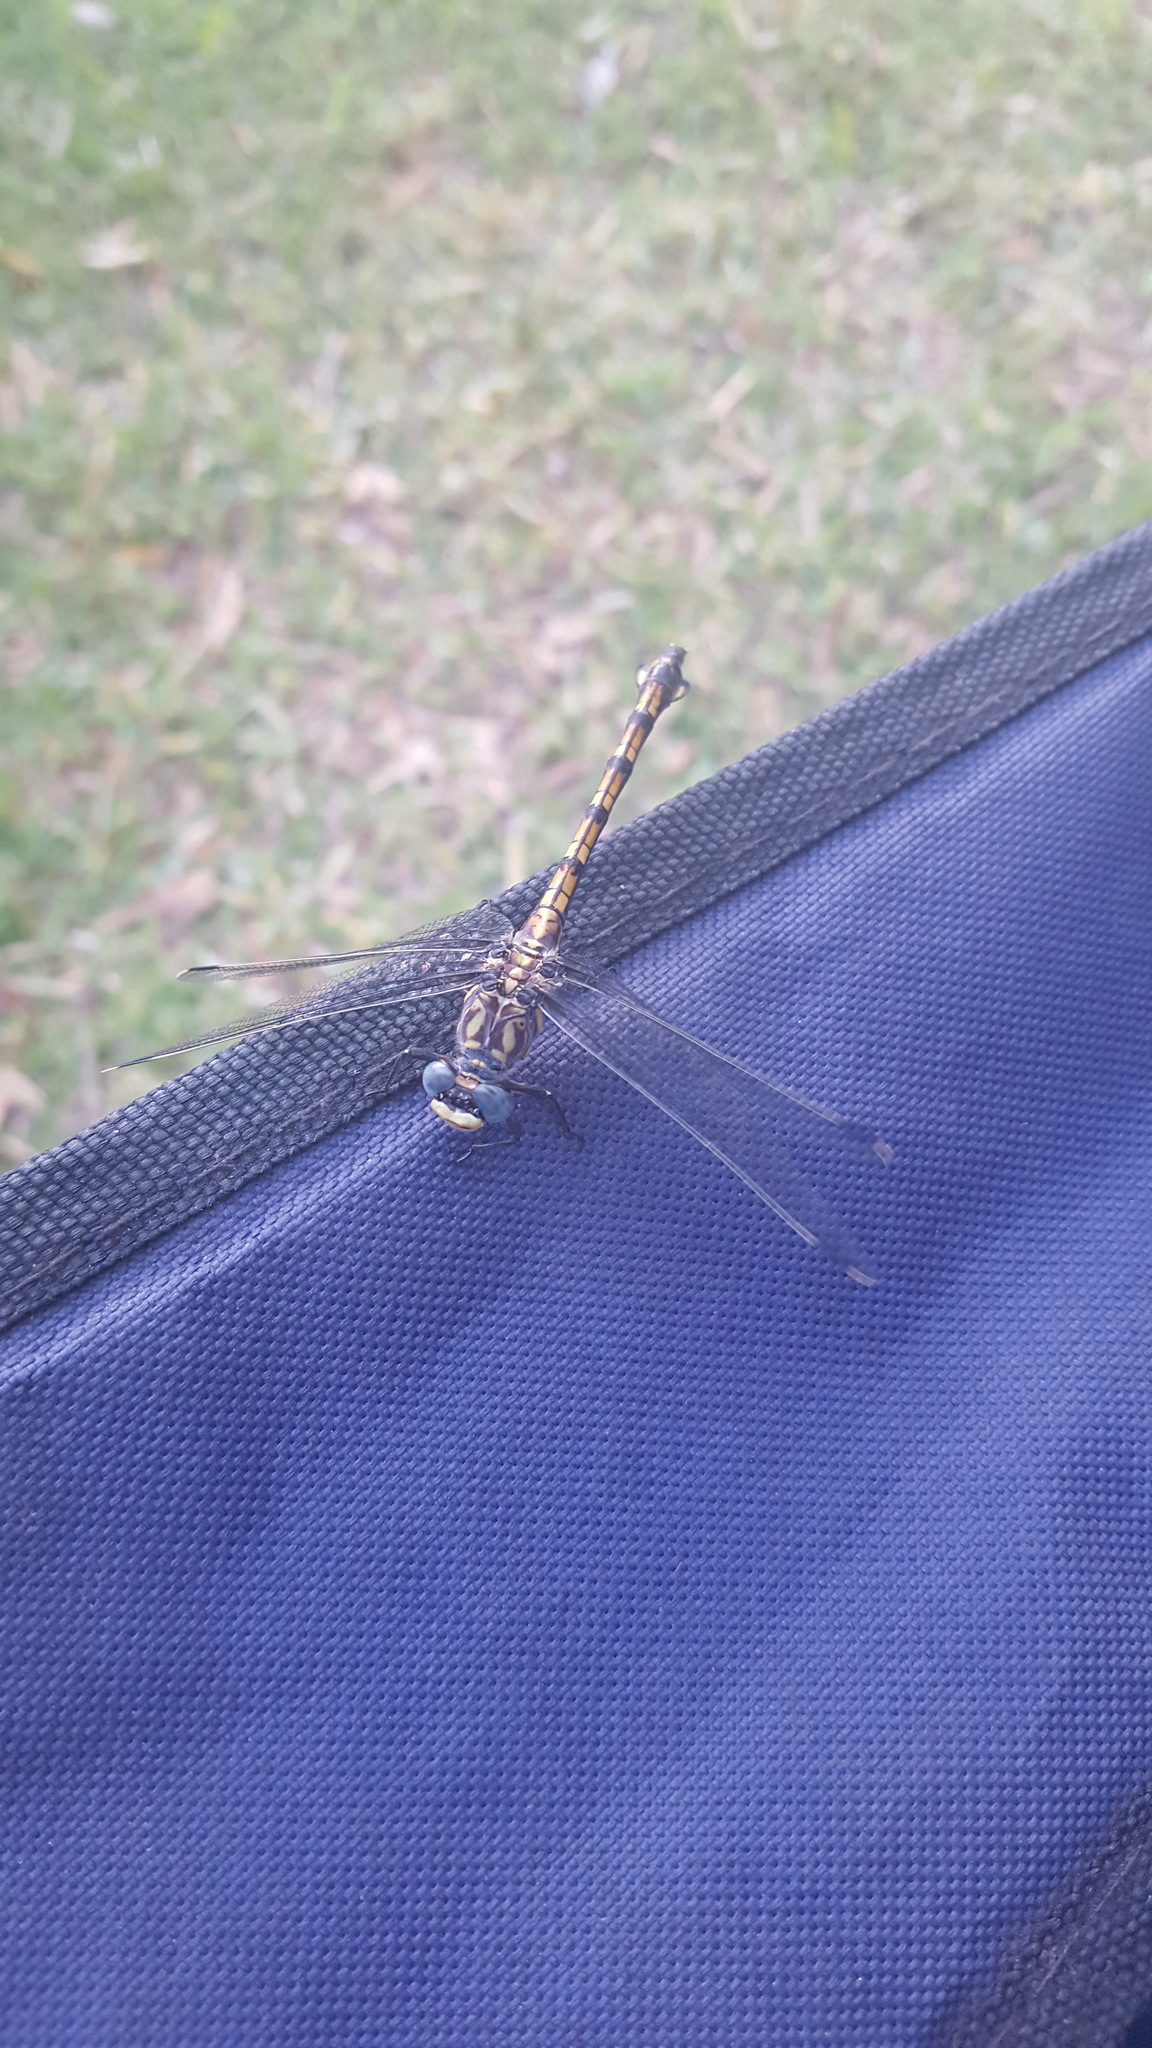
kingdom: Animalia
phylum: Arthropoda
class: Insecta
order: Odonata
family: Gomphidae
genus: Ceratogomphus
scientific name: Ceratogomphus pictus
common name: Common thorntail
